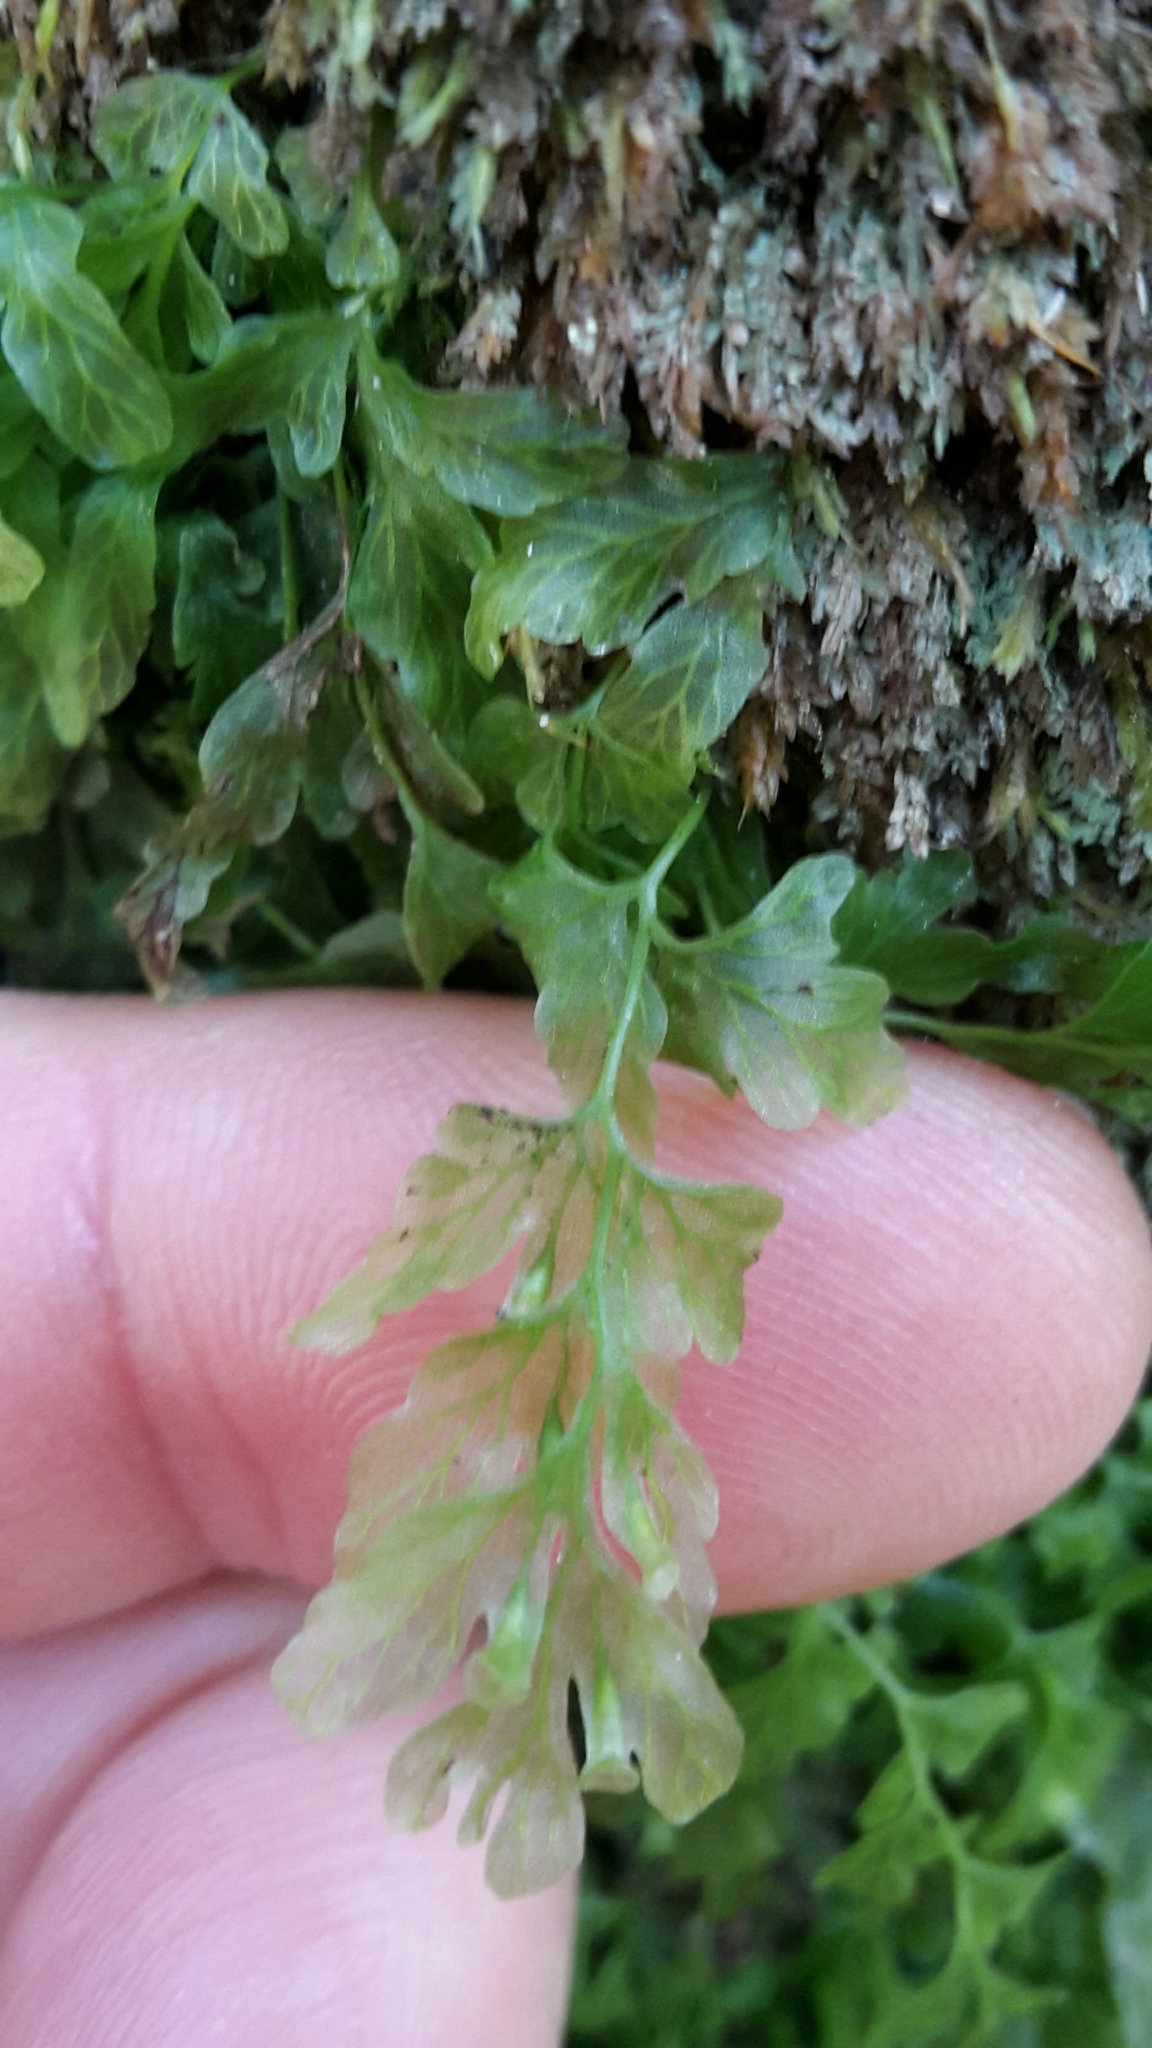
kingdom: Plantae
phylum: Tracheophyta
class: Polypodiopsida
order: Hymenophyllales
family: Hymenophyllaceae
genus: Polyphlebium
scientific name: Polyphlebium venosum
